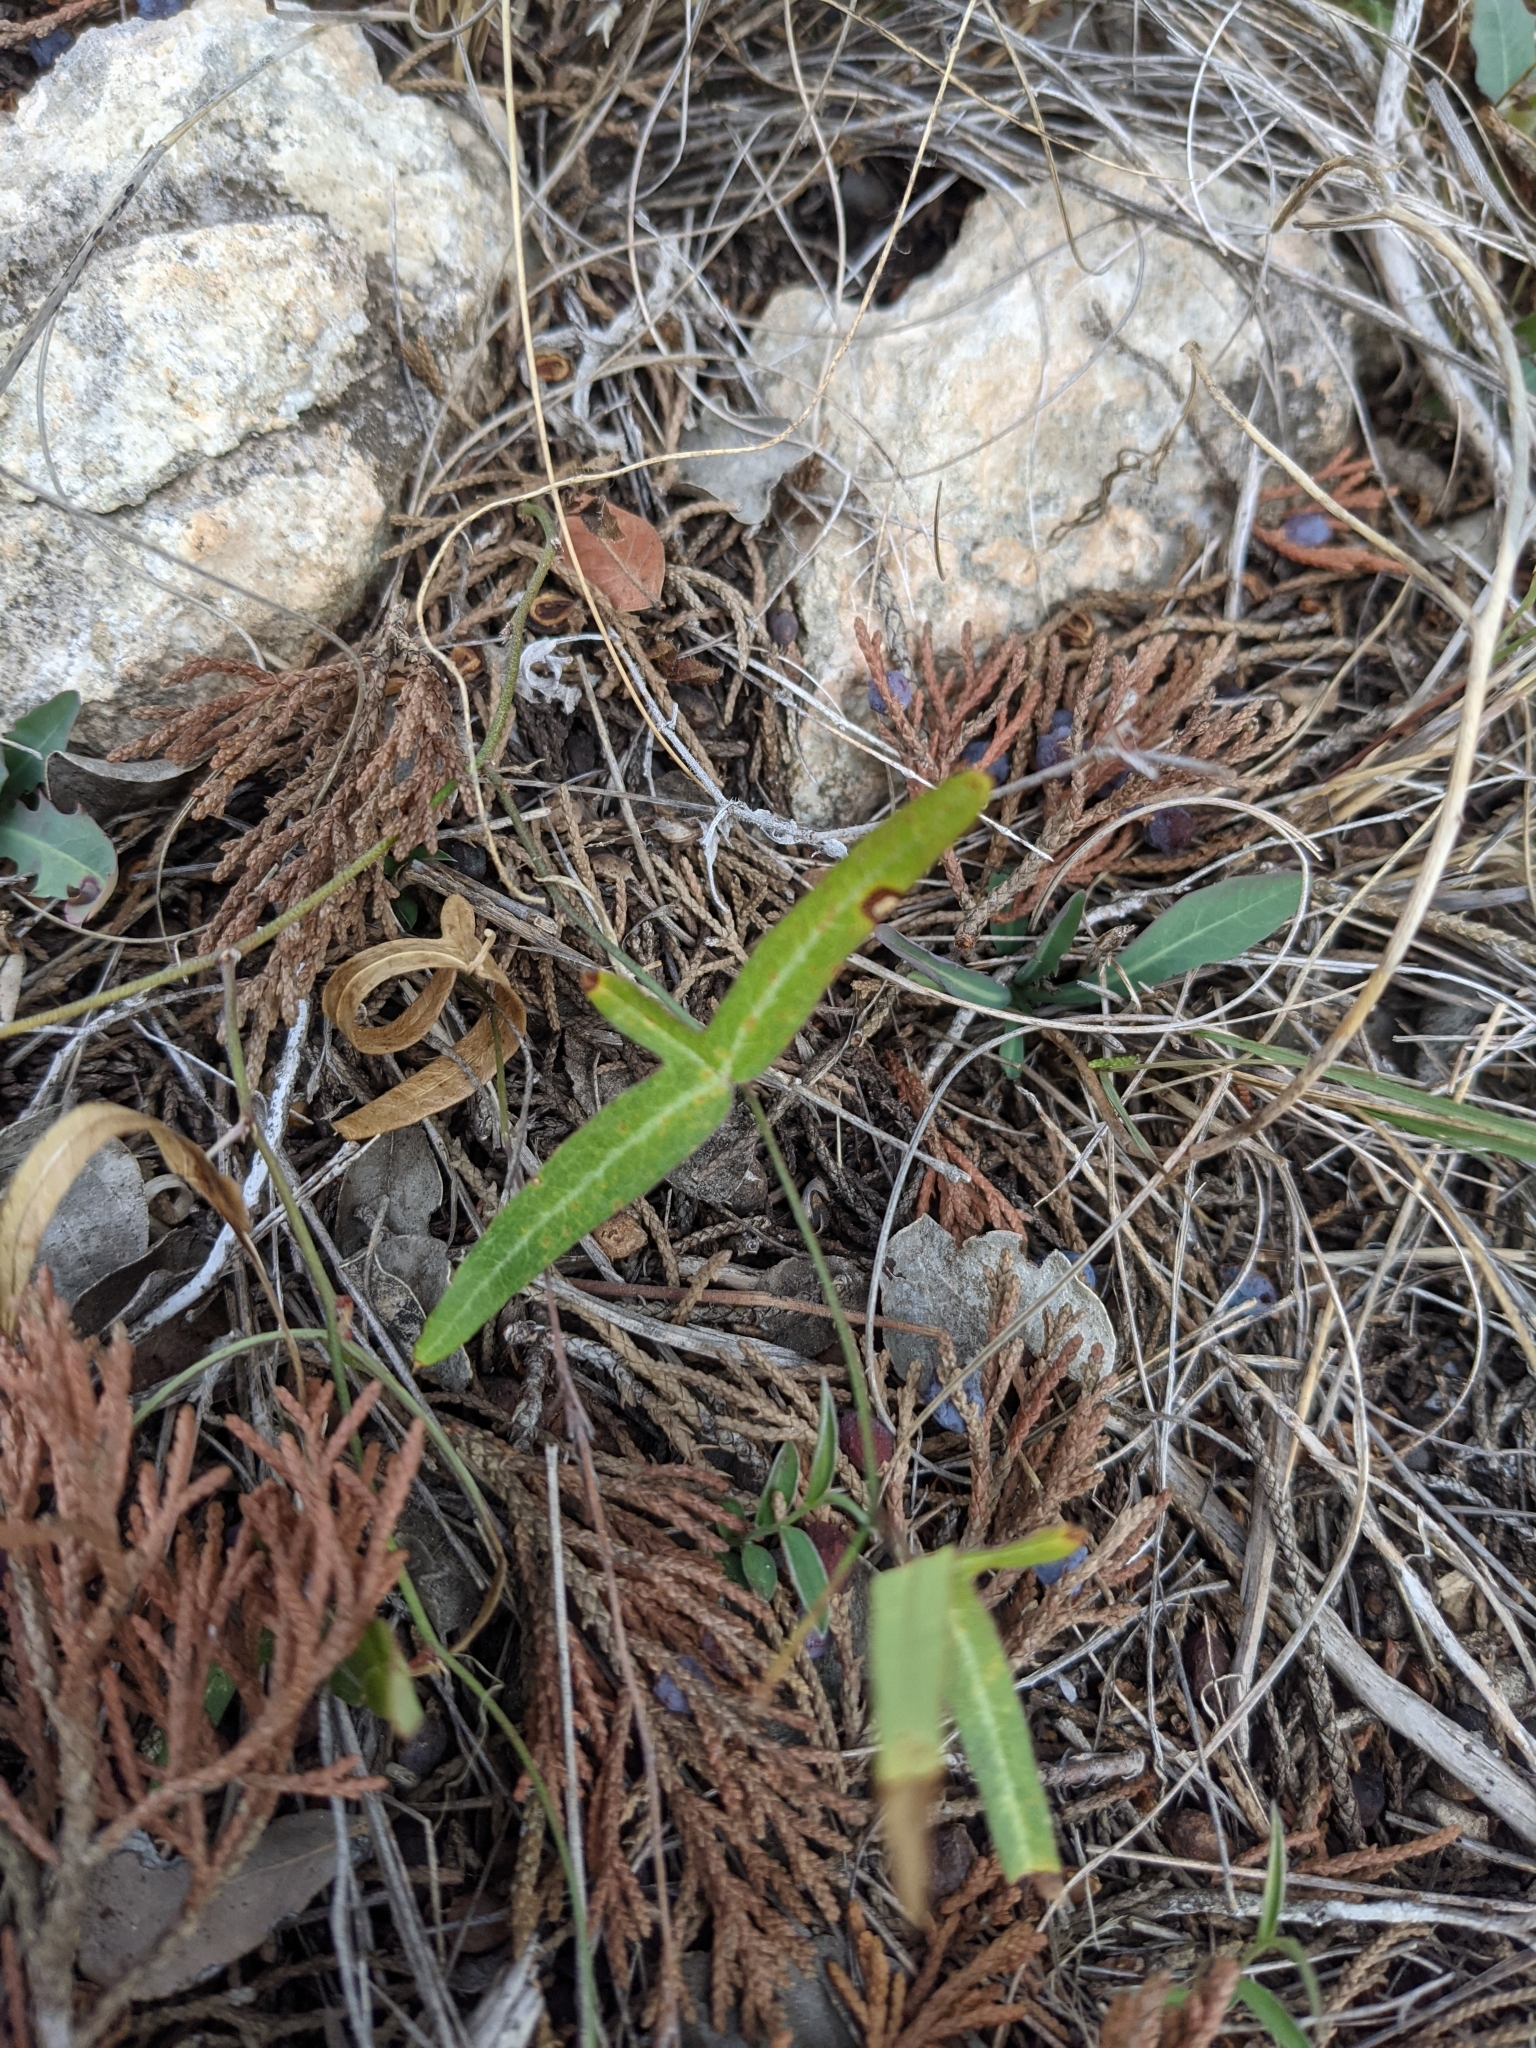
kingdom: Plantae
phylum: Tracheophyta
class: Magnoliopsida
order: Malpighiales
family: Passifloraceae
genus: Passiflora
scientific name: Passiflora tenuiloba
